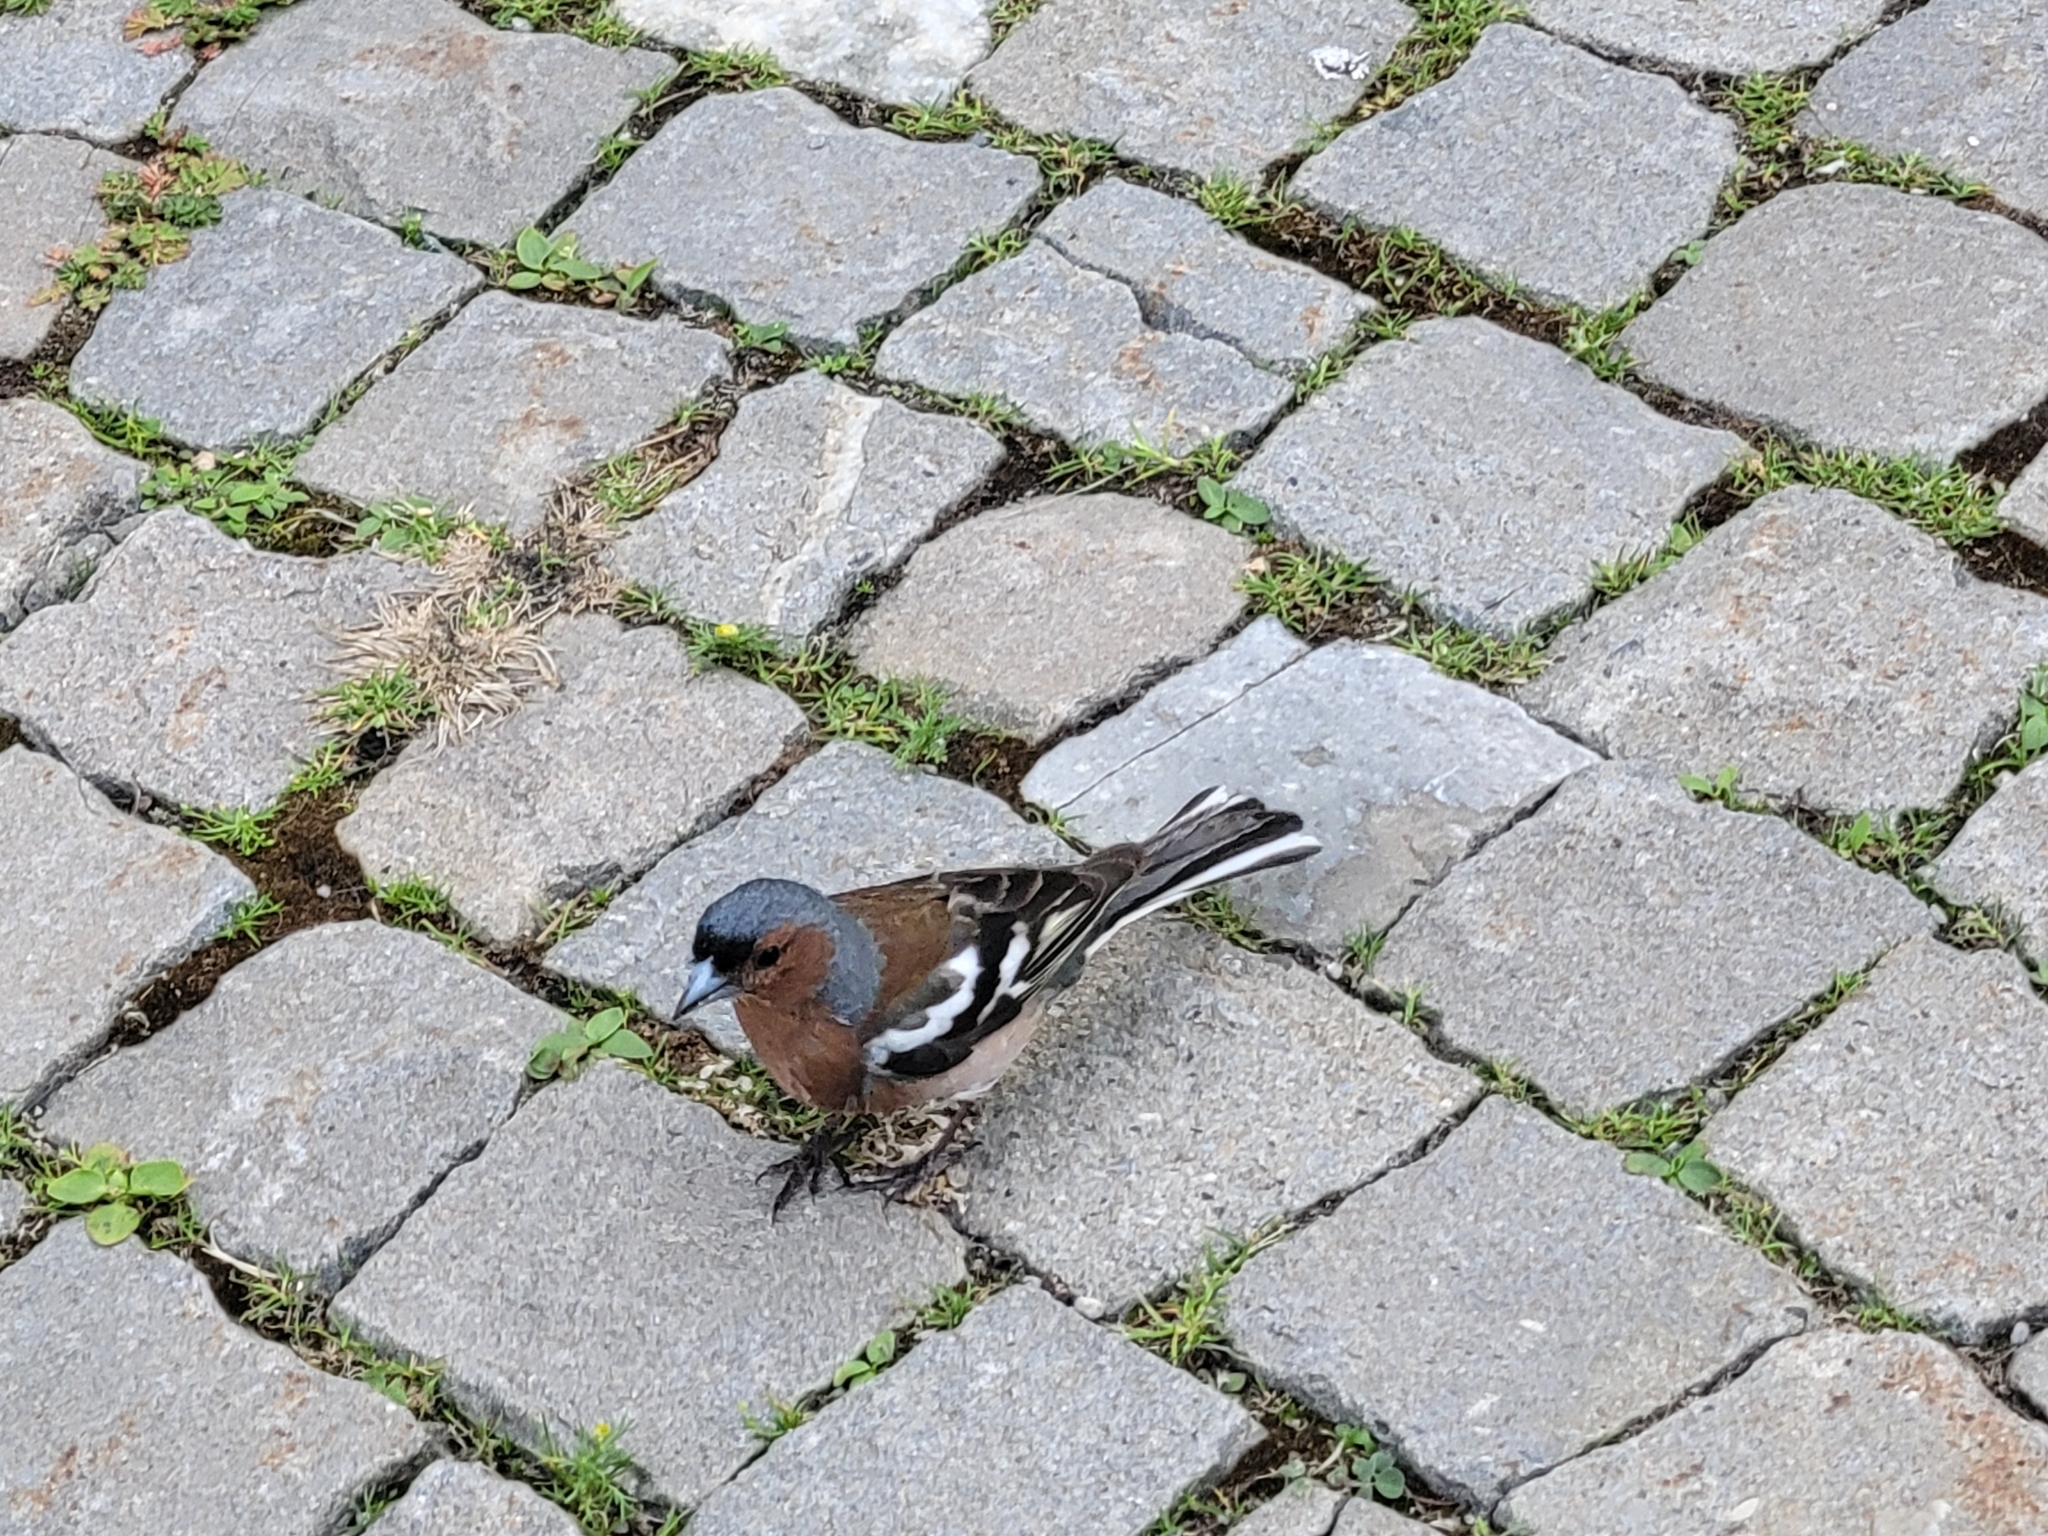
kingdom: Animalia
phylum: Chordata
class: Aves
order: Passeriformes
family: Fringillidae
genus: Fringilla
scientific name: Fringilla coelebs
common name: Common chaffinch
